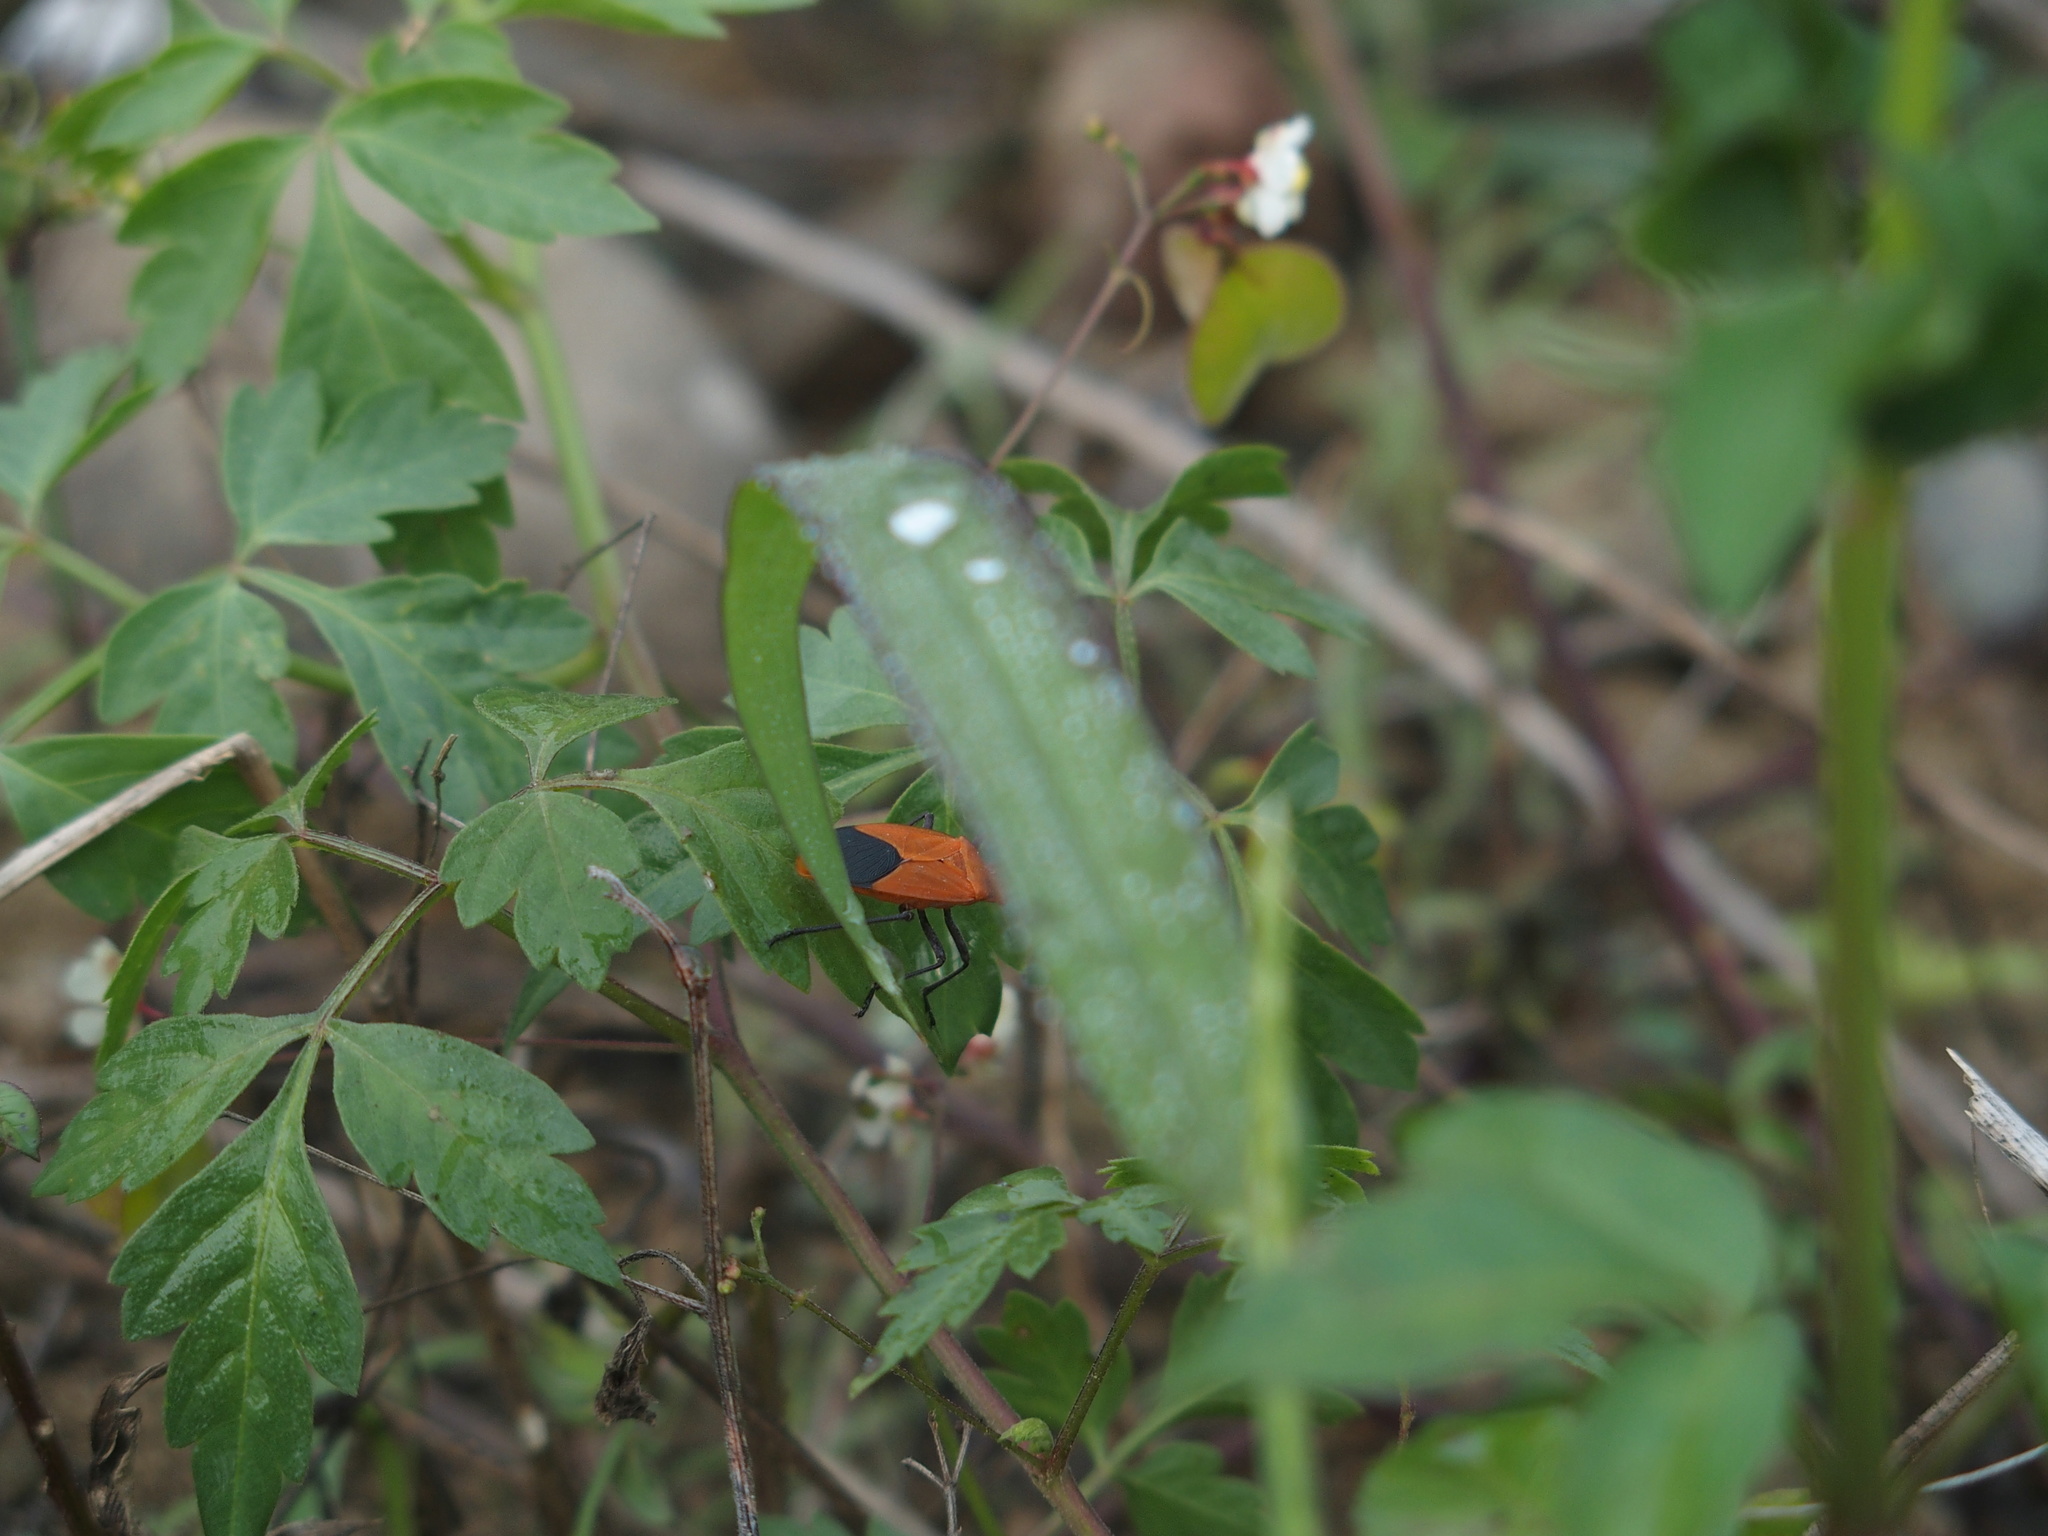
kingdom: Animalia
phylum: Arthropoda
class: Insecta
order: Hemiptera
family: Rhopalidae
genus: Leptocoris
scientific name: Leptocoris augur
